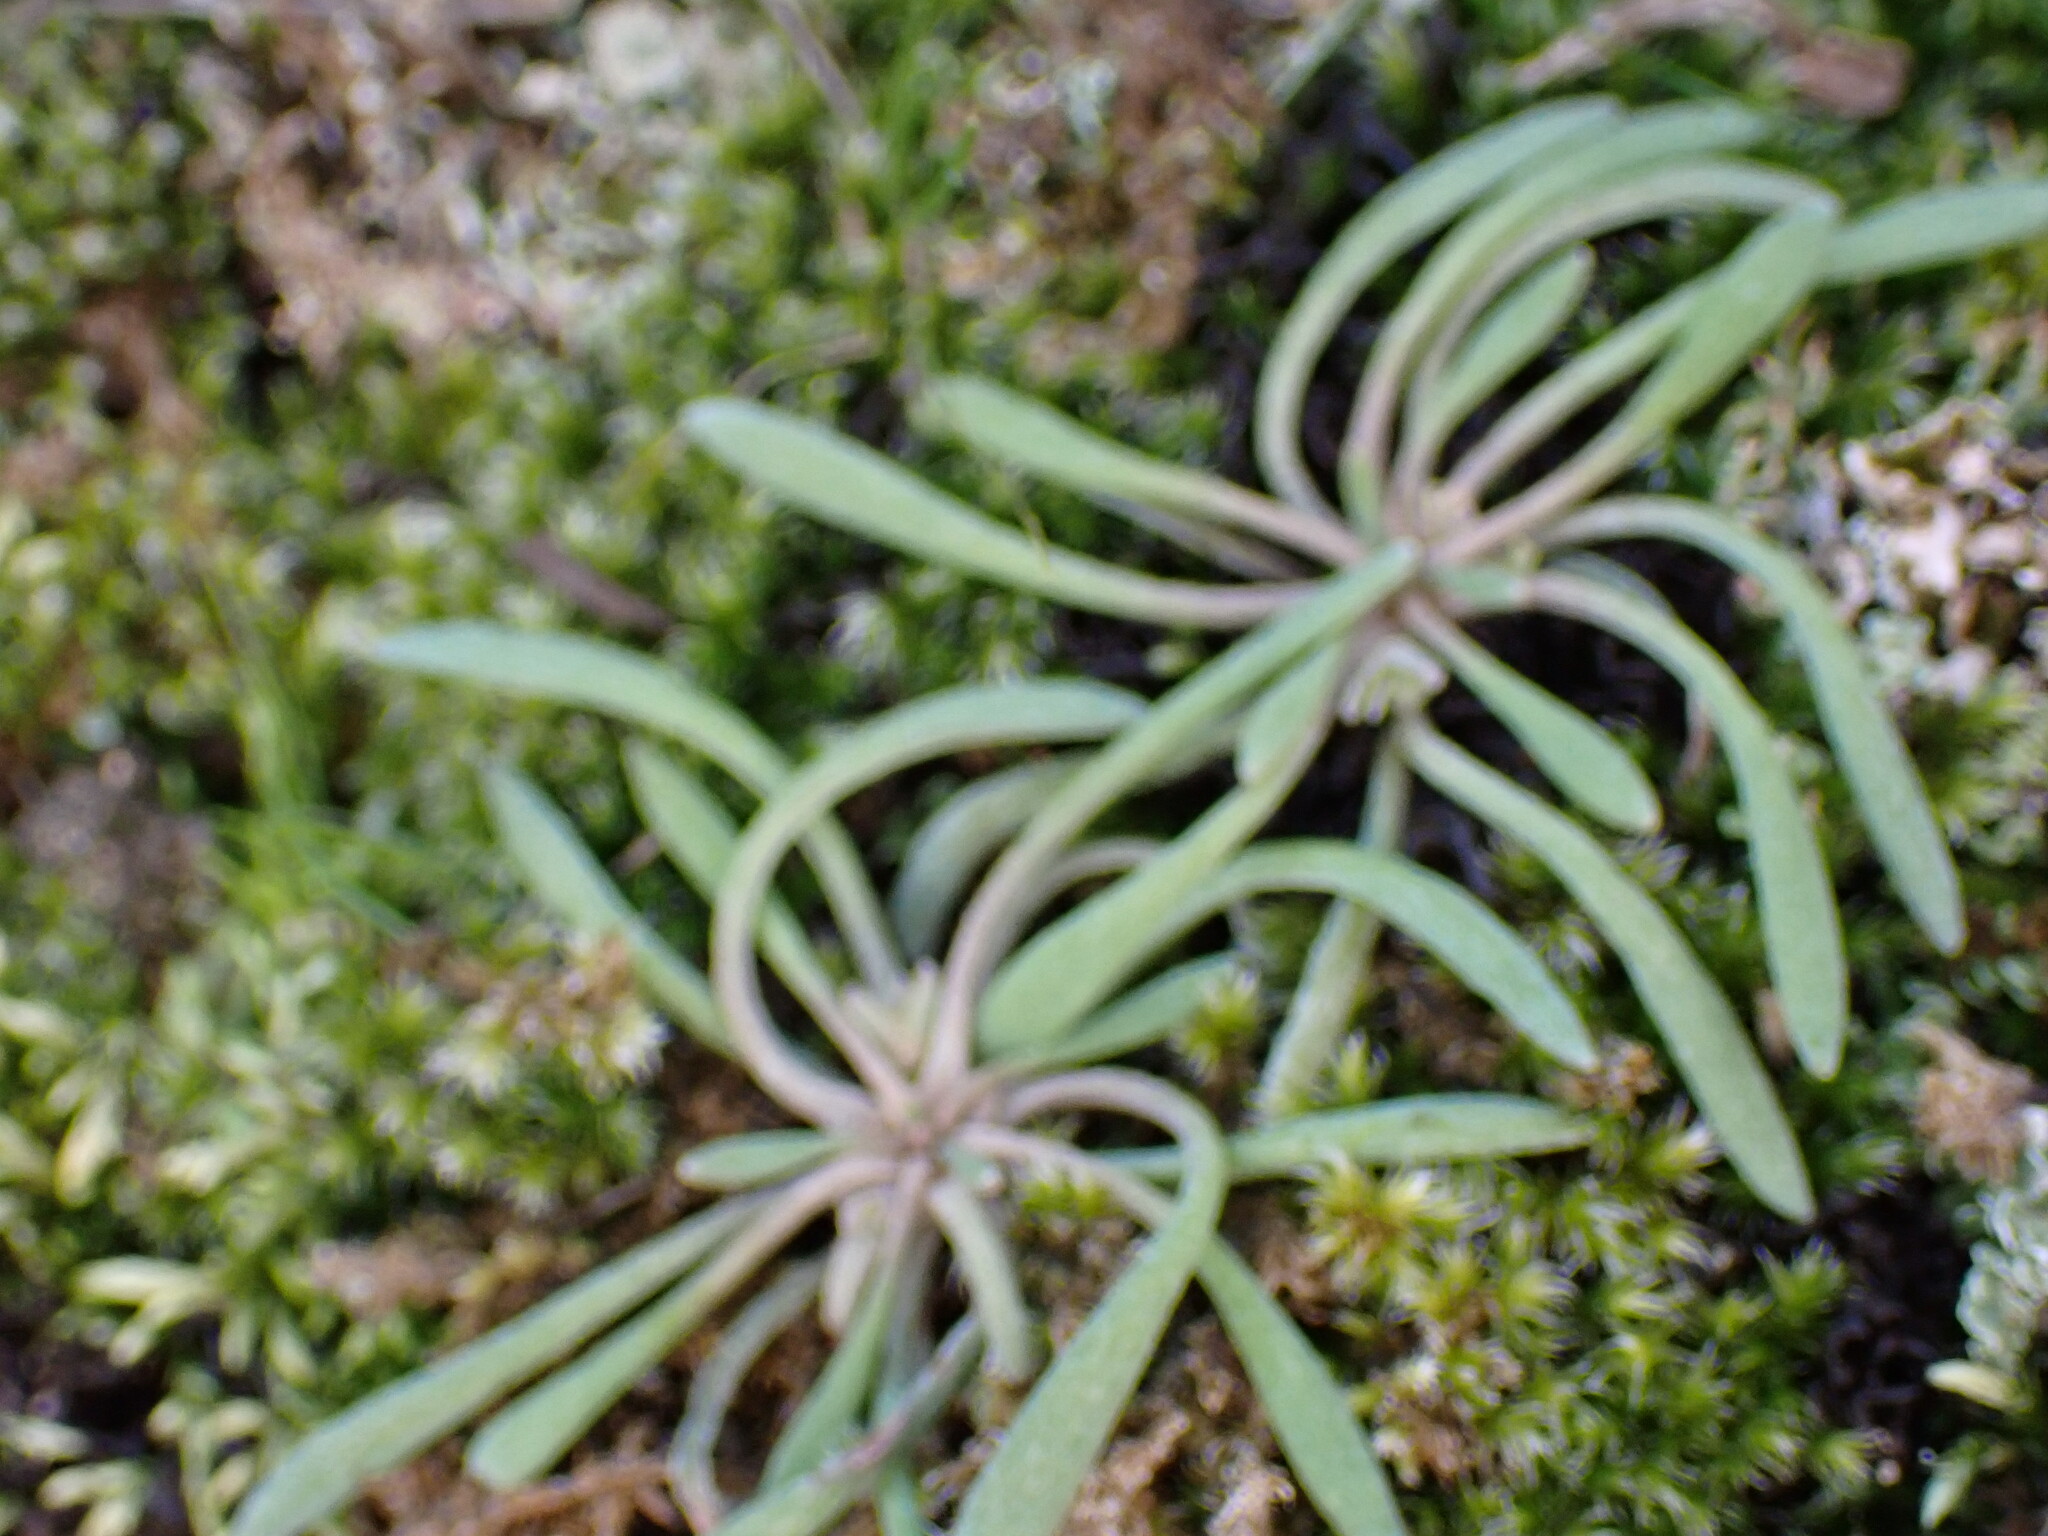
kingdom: Plantae
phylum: Tracheophyta
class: Magnoliopsida
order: Caryophyllales
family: Montiaceae
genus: Claytonia
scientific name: Claytonia exigua
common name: Pale spring beauty
